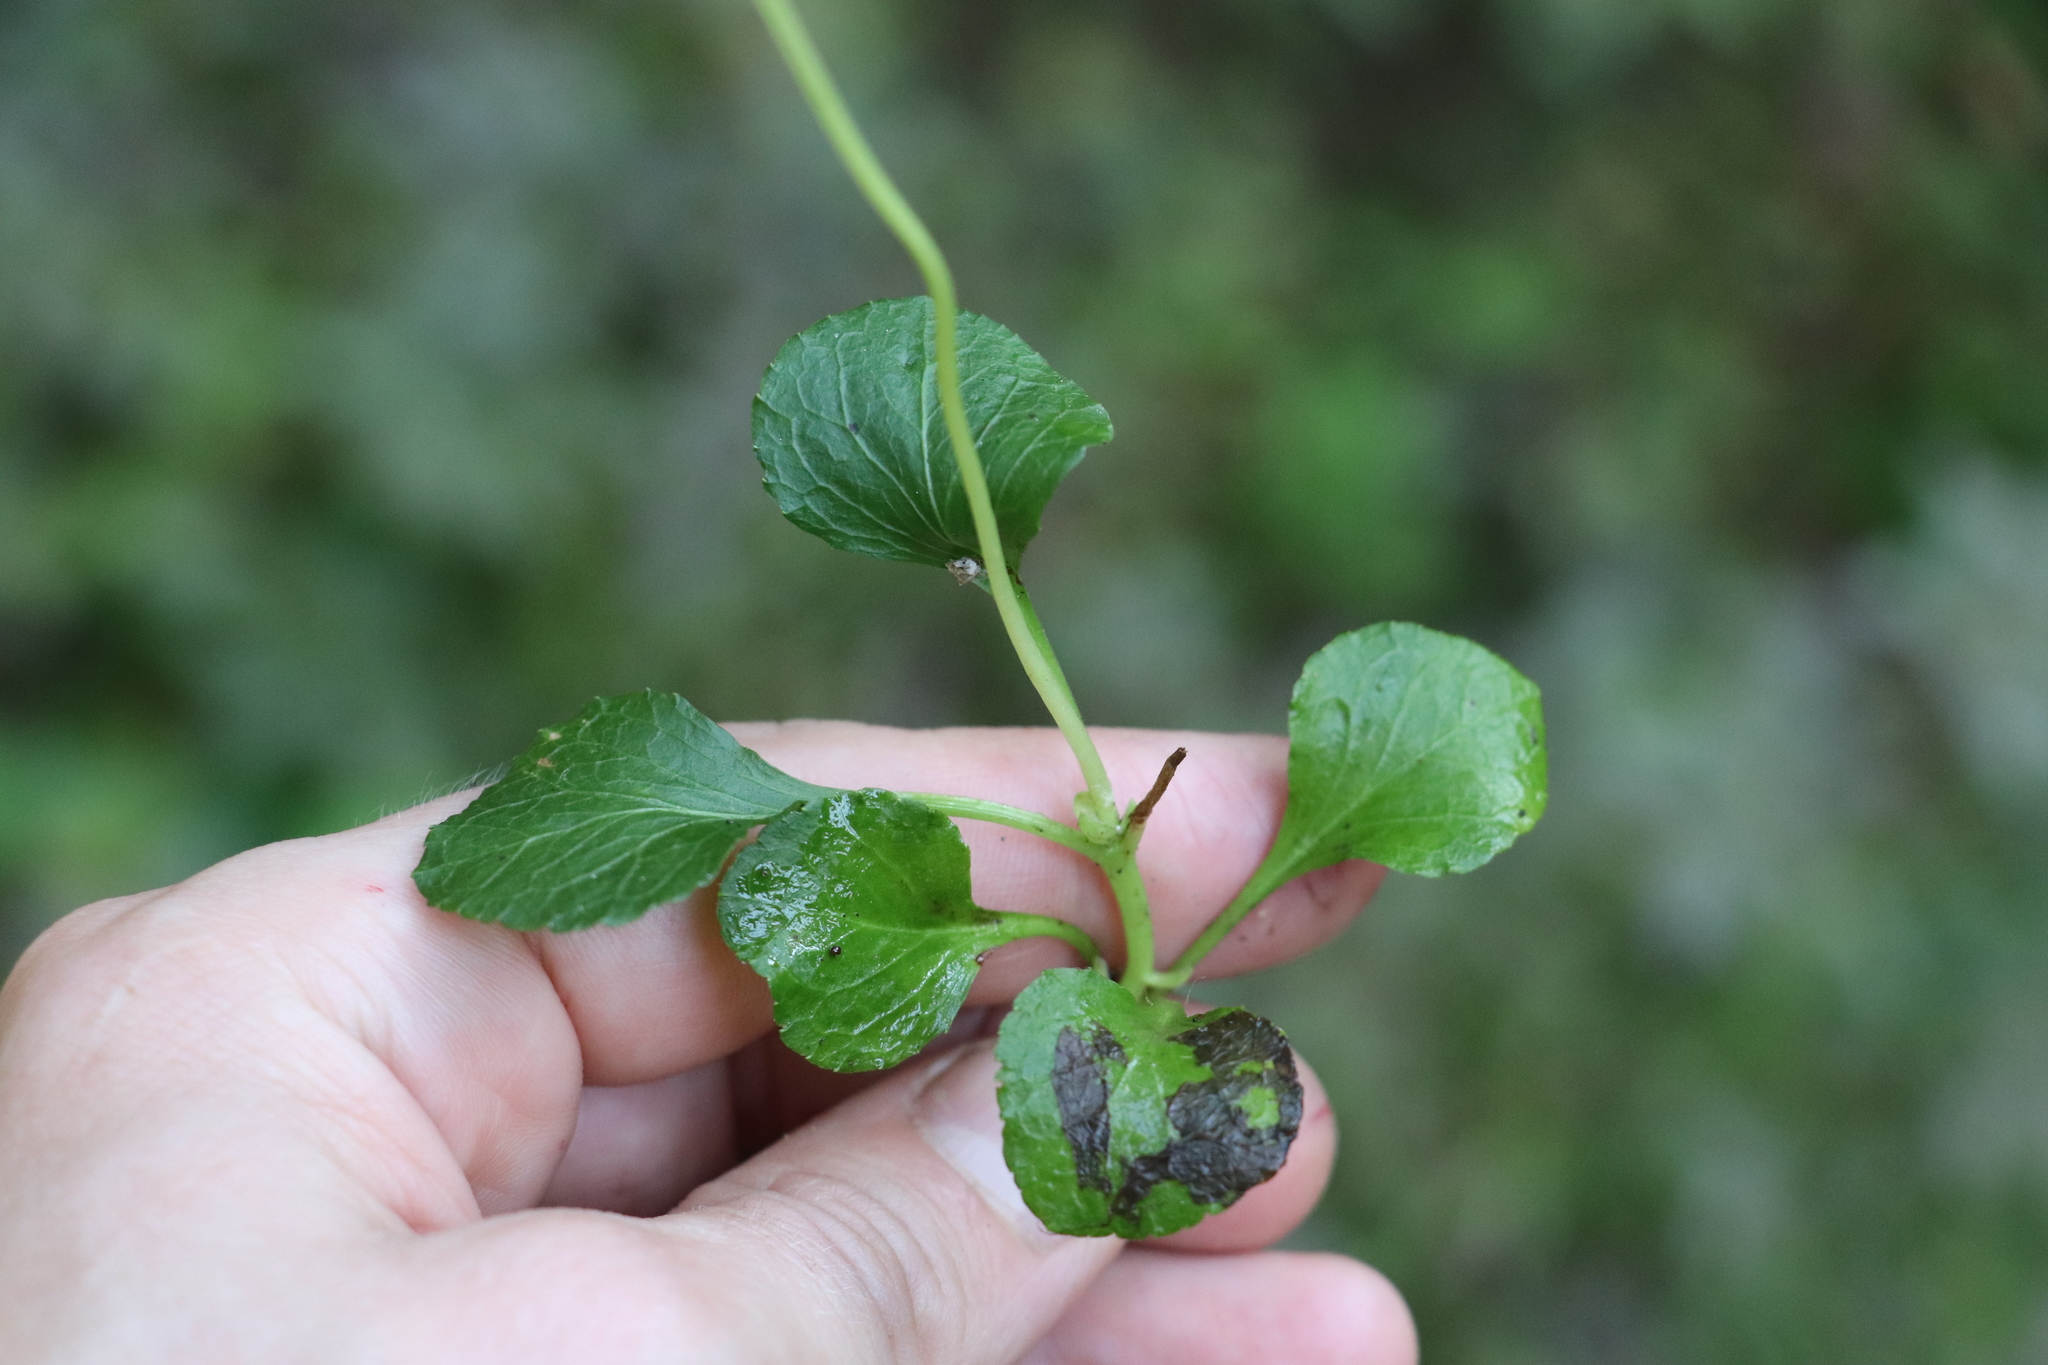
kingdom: Plantae
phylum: Tracheophyta
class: Magnoliopsida
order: Ericales
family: Ericaceae
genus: Moneses
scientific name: Moneses uniflora
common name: One-flowered wintergreen
